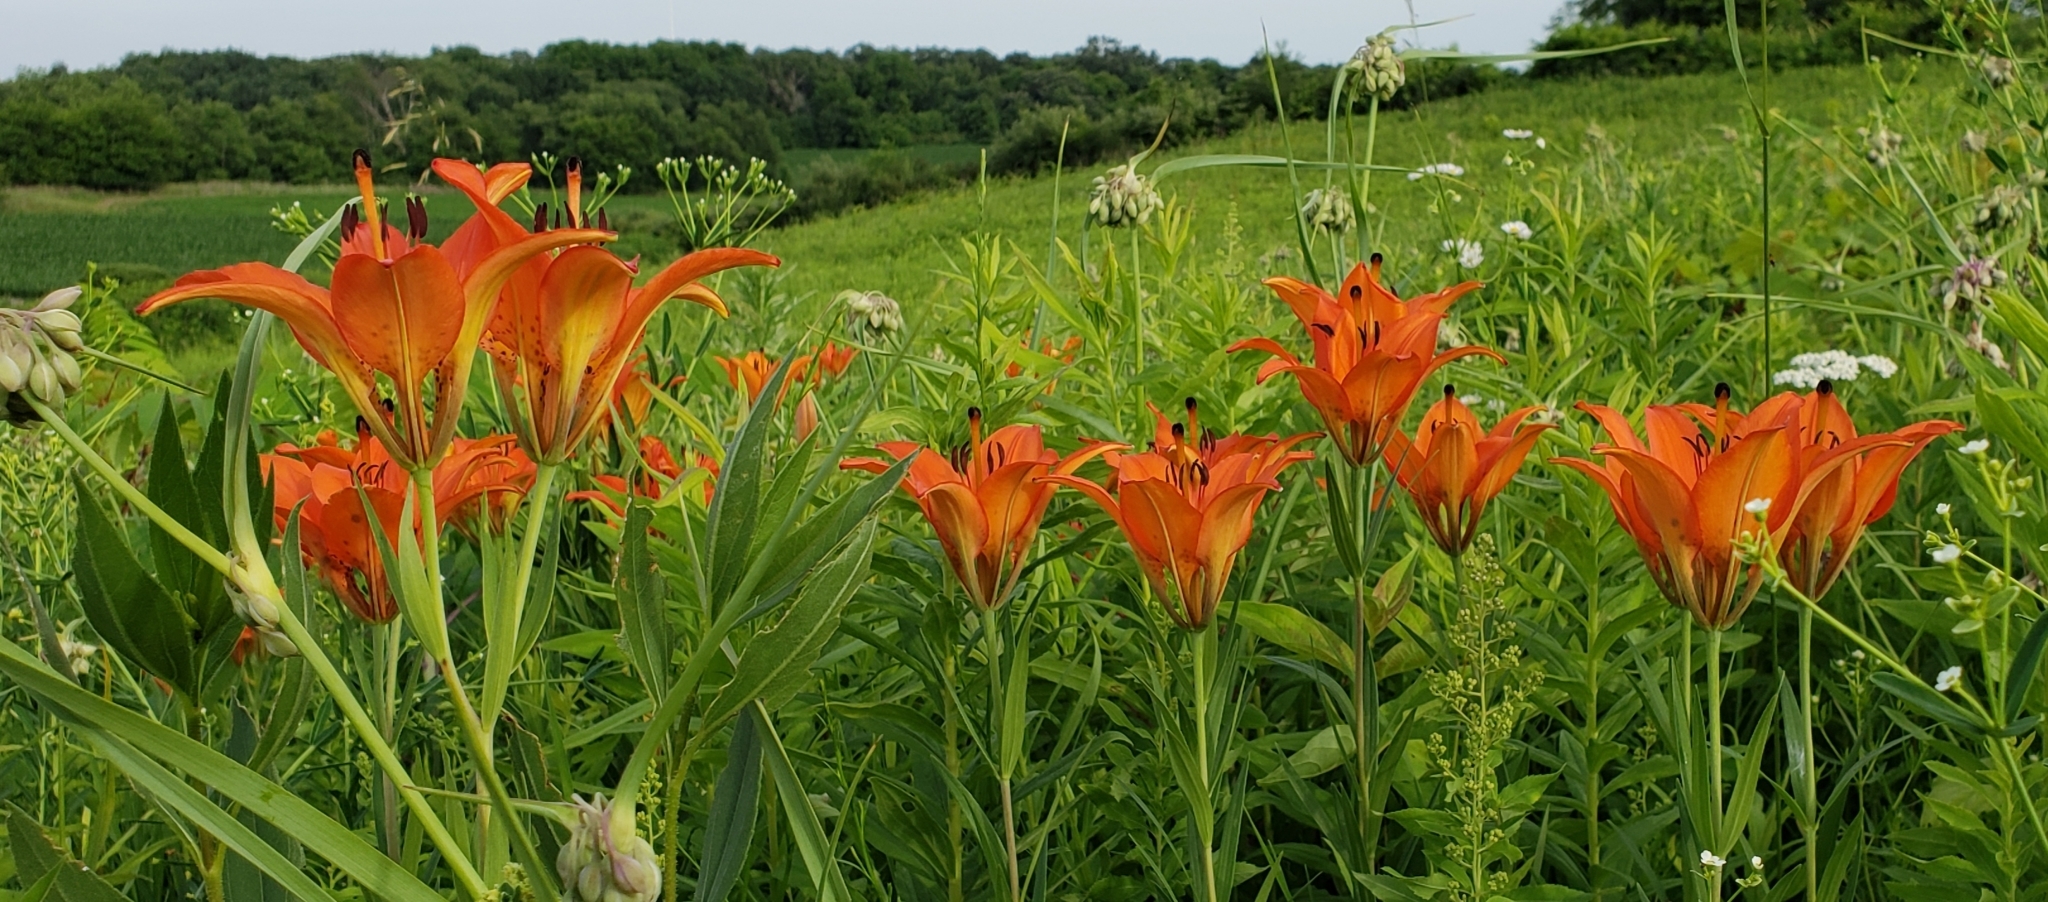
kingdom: Plantae
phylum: Tracheophyta
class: Liliopsida
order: Liliales
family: Liliaceae
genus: Lilium
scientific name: Lilium philadelphicum
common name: Red lily
